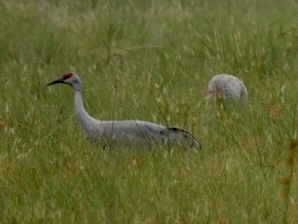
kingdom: Animalia
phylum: Chordata
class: Aves
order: Gruiformes
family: Gruidae
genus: Grus
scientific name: Grus canadensis
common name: Sandhill crane
